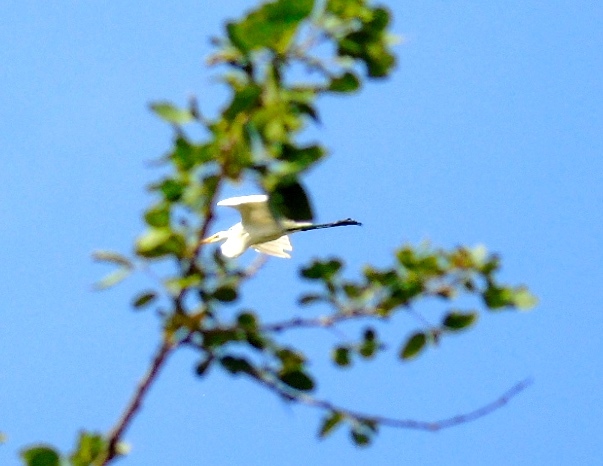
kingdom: Animalia
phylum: Chordata
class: Aves
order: Pelecaniformes
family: Ardeidae
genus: Ardea
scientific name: Ardea alba
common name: Great egret
